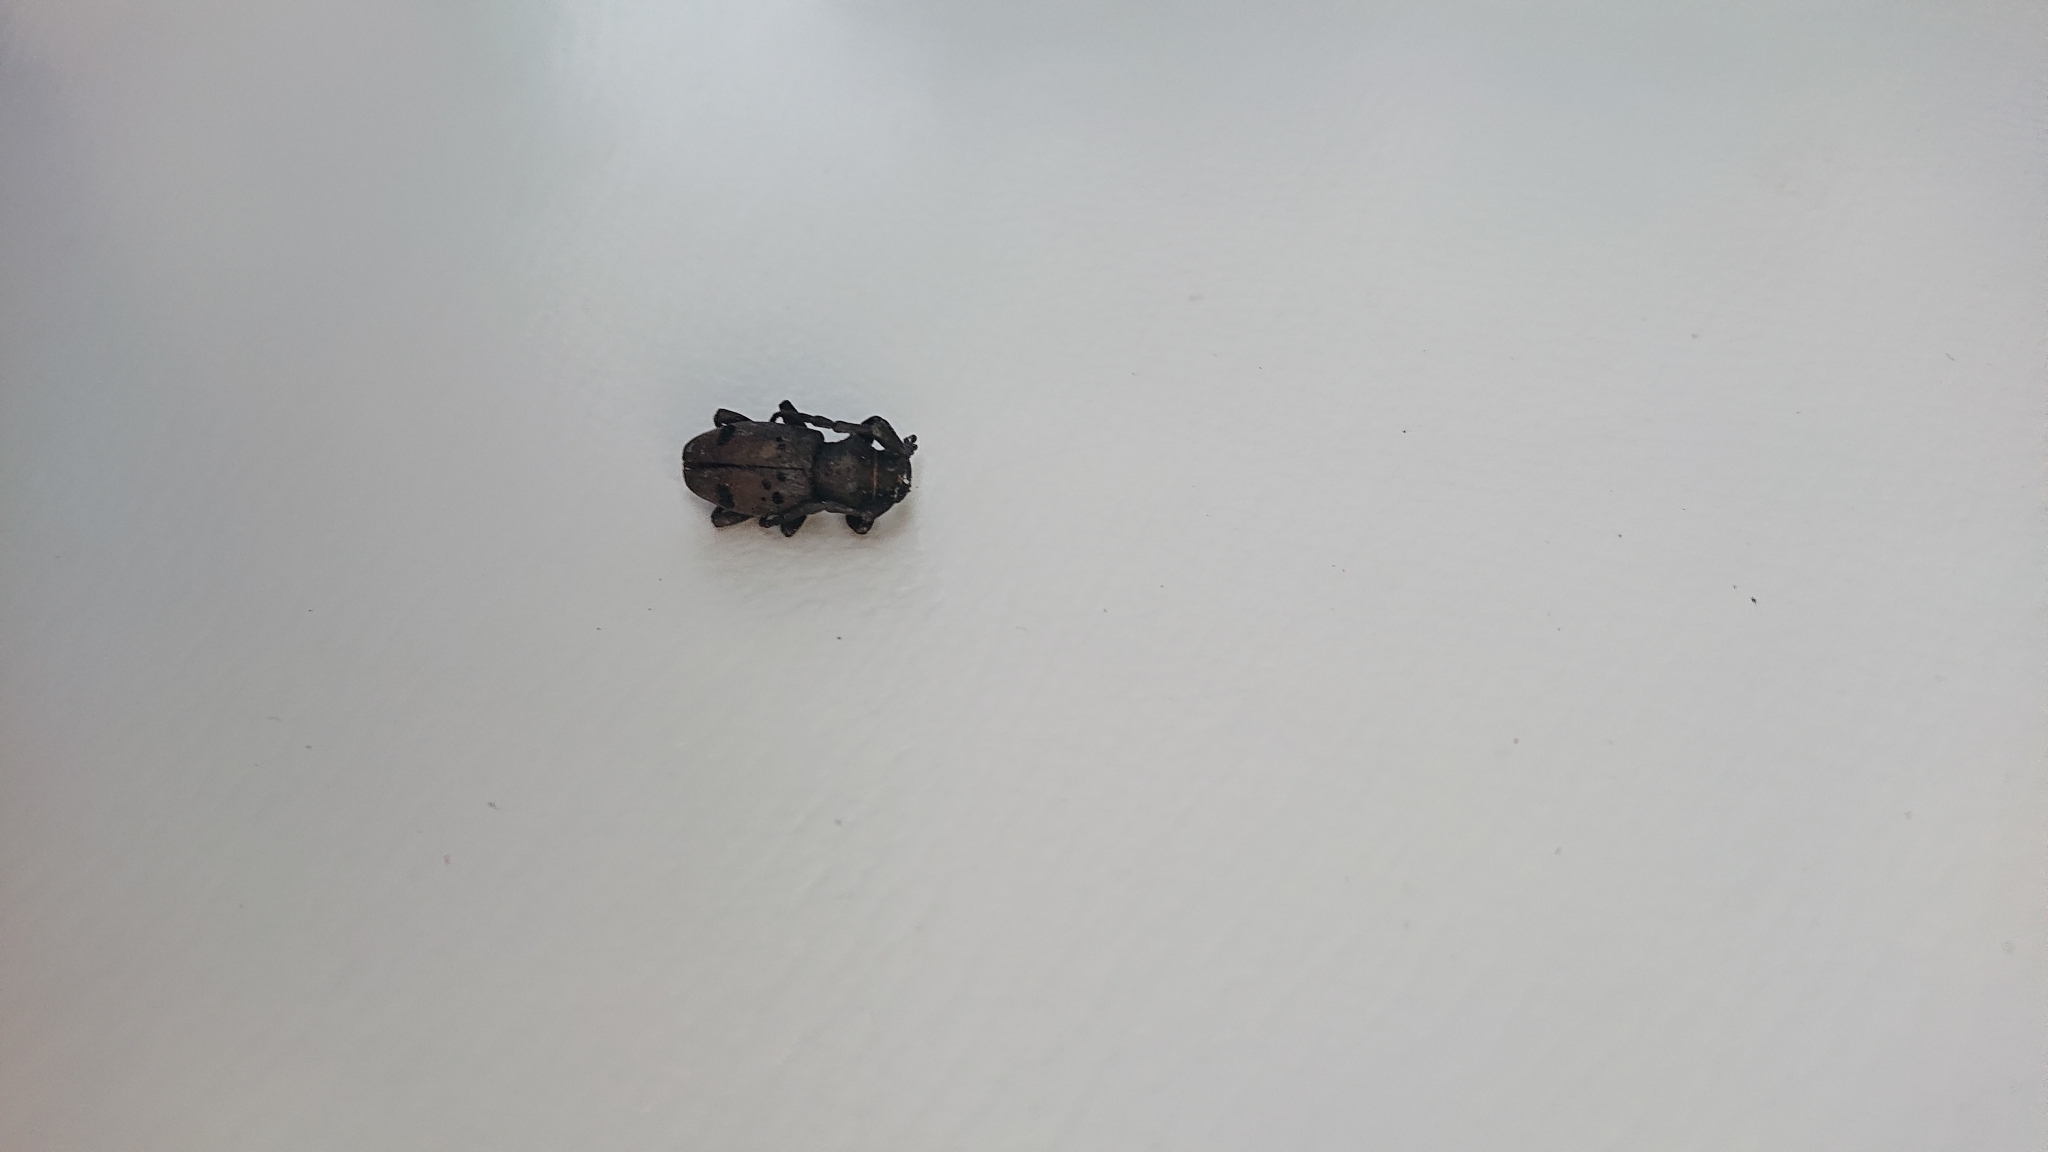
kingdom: Animalia
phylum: Arthropoda
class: Insecta
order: Coleoptera
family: Cerambycidae
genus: Herophila
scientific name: Herophila tristis
